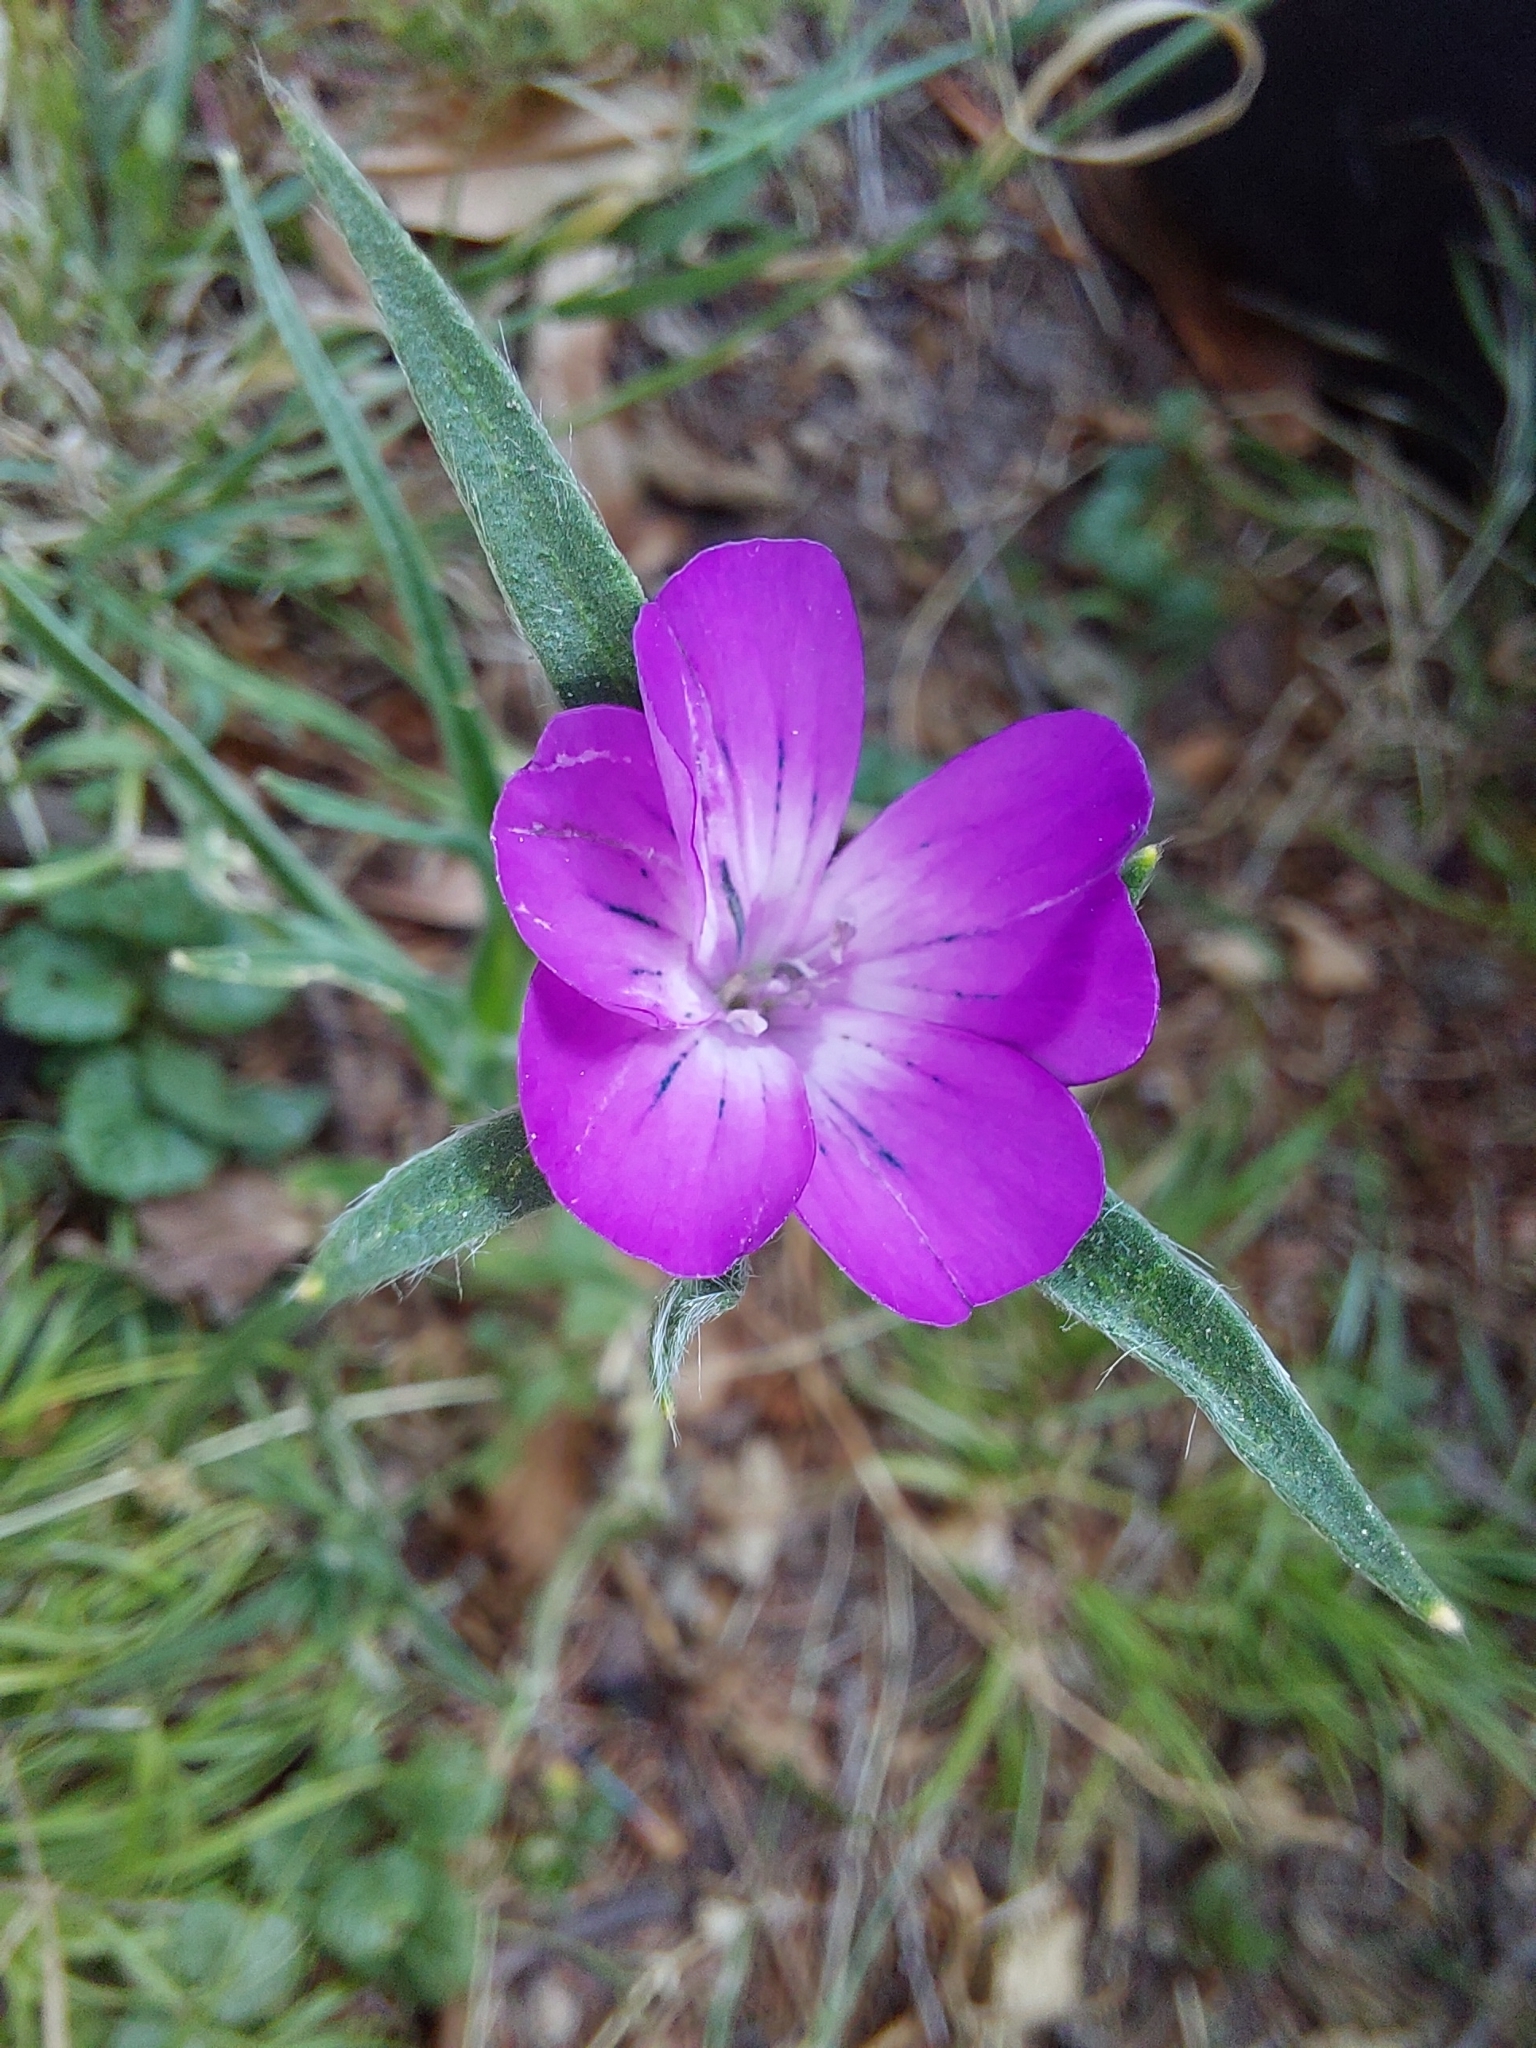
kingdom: Plantae
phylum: Tracheophyta
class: Magnoliopsida
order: Caryophyllales
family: Caryophyllaceae
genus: Agrostemma
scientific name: Agrostemma githago
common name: Common corncockle
